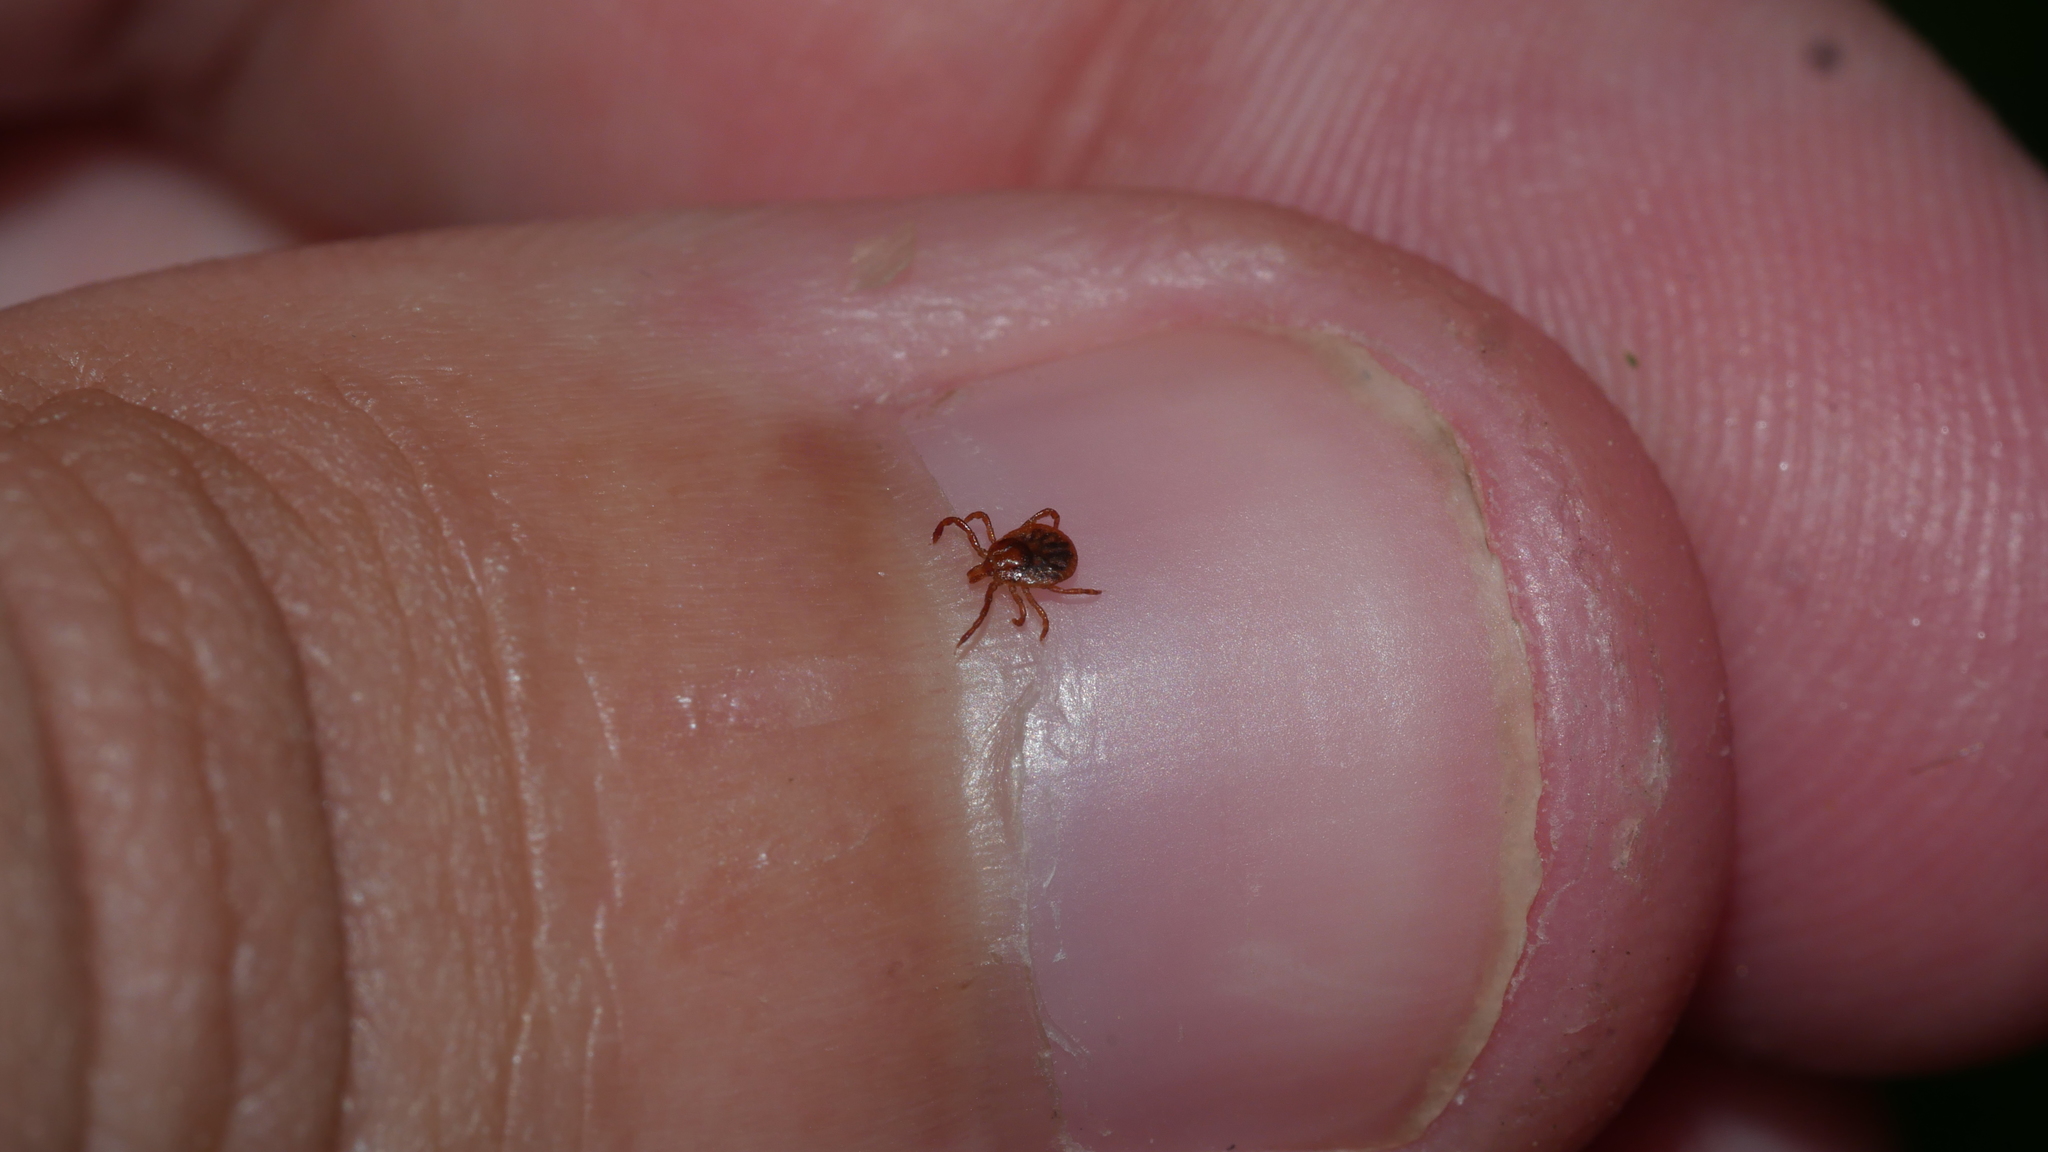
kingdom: Animalia
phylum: Arthropoda
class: Arachnida
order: Ixodida
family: Ixodidae
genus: Amblyomma
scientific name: Amblyomma americanum
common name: Lone star tick
